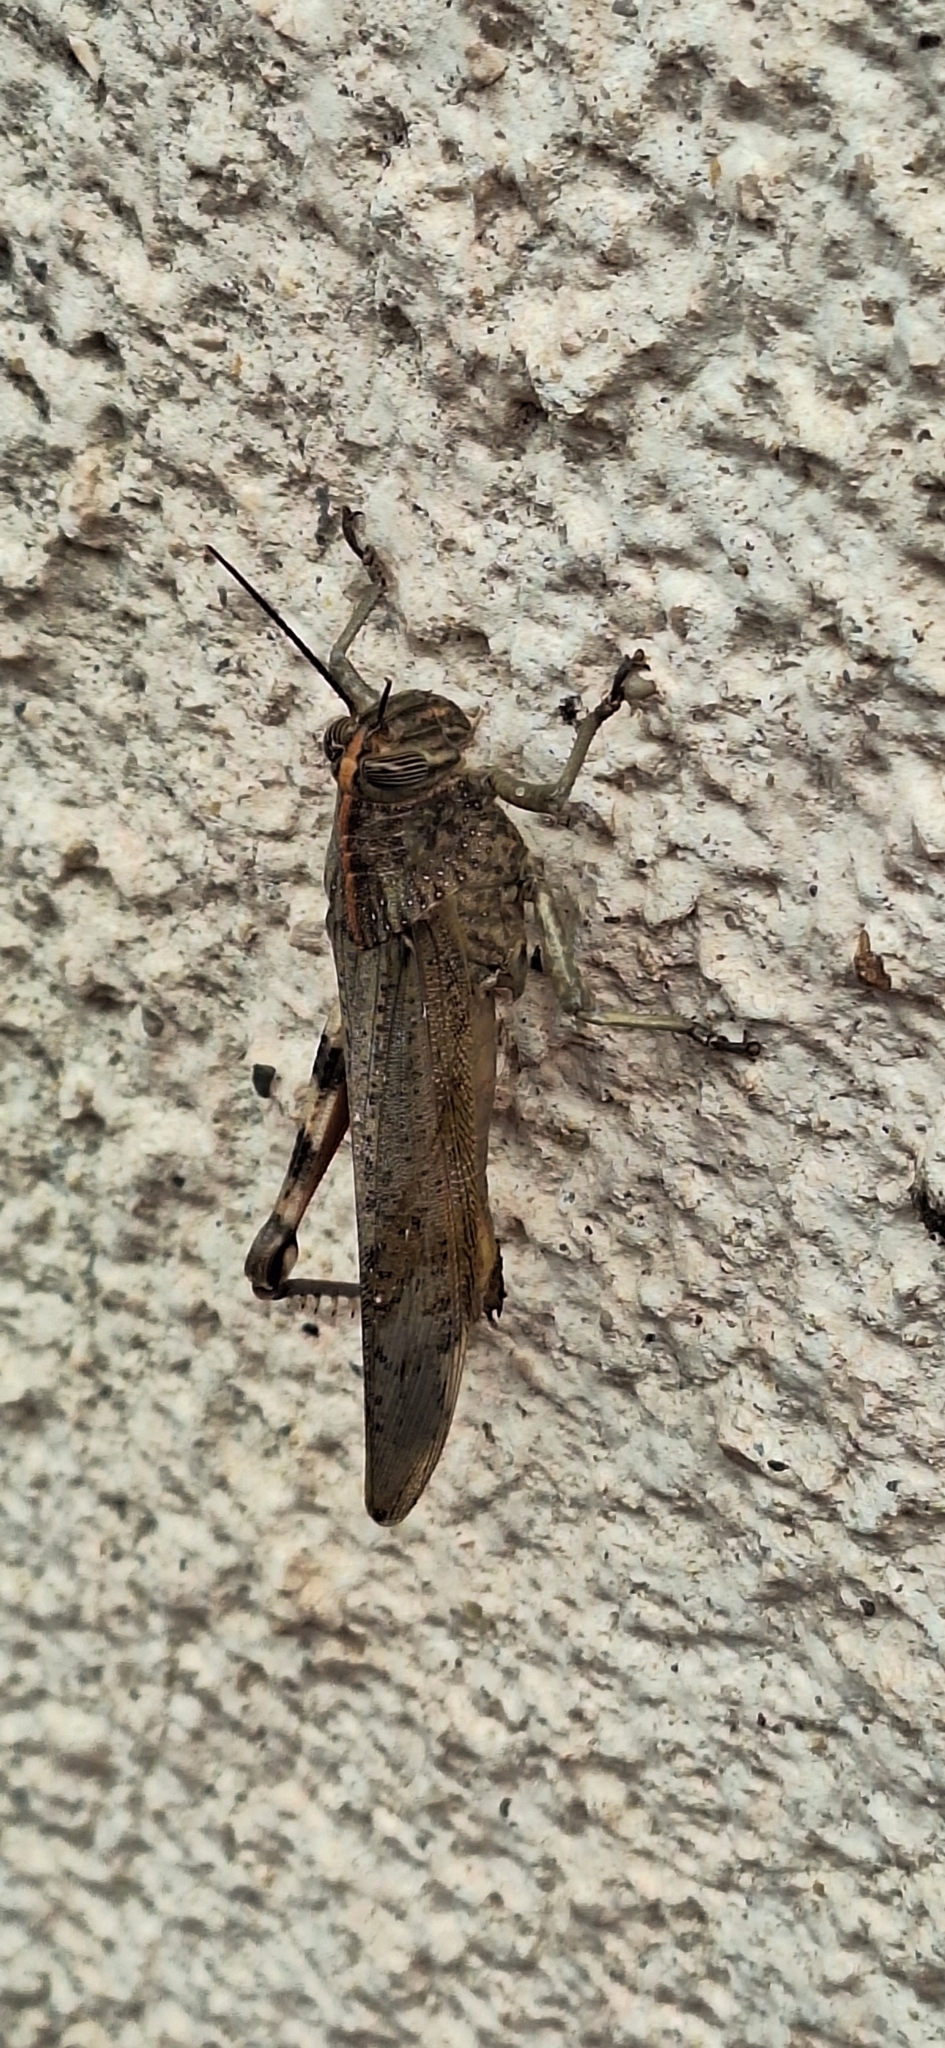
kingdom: Animalia
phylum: Arthropoda
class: Insecta
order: Orthoptera
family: Acrididae
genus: Anacridium
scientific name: Anacridium aegyptium
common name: Egyptian grasshopper
